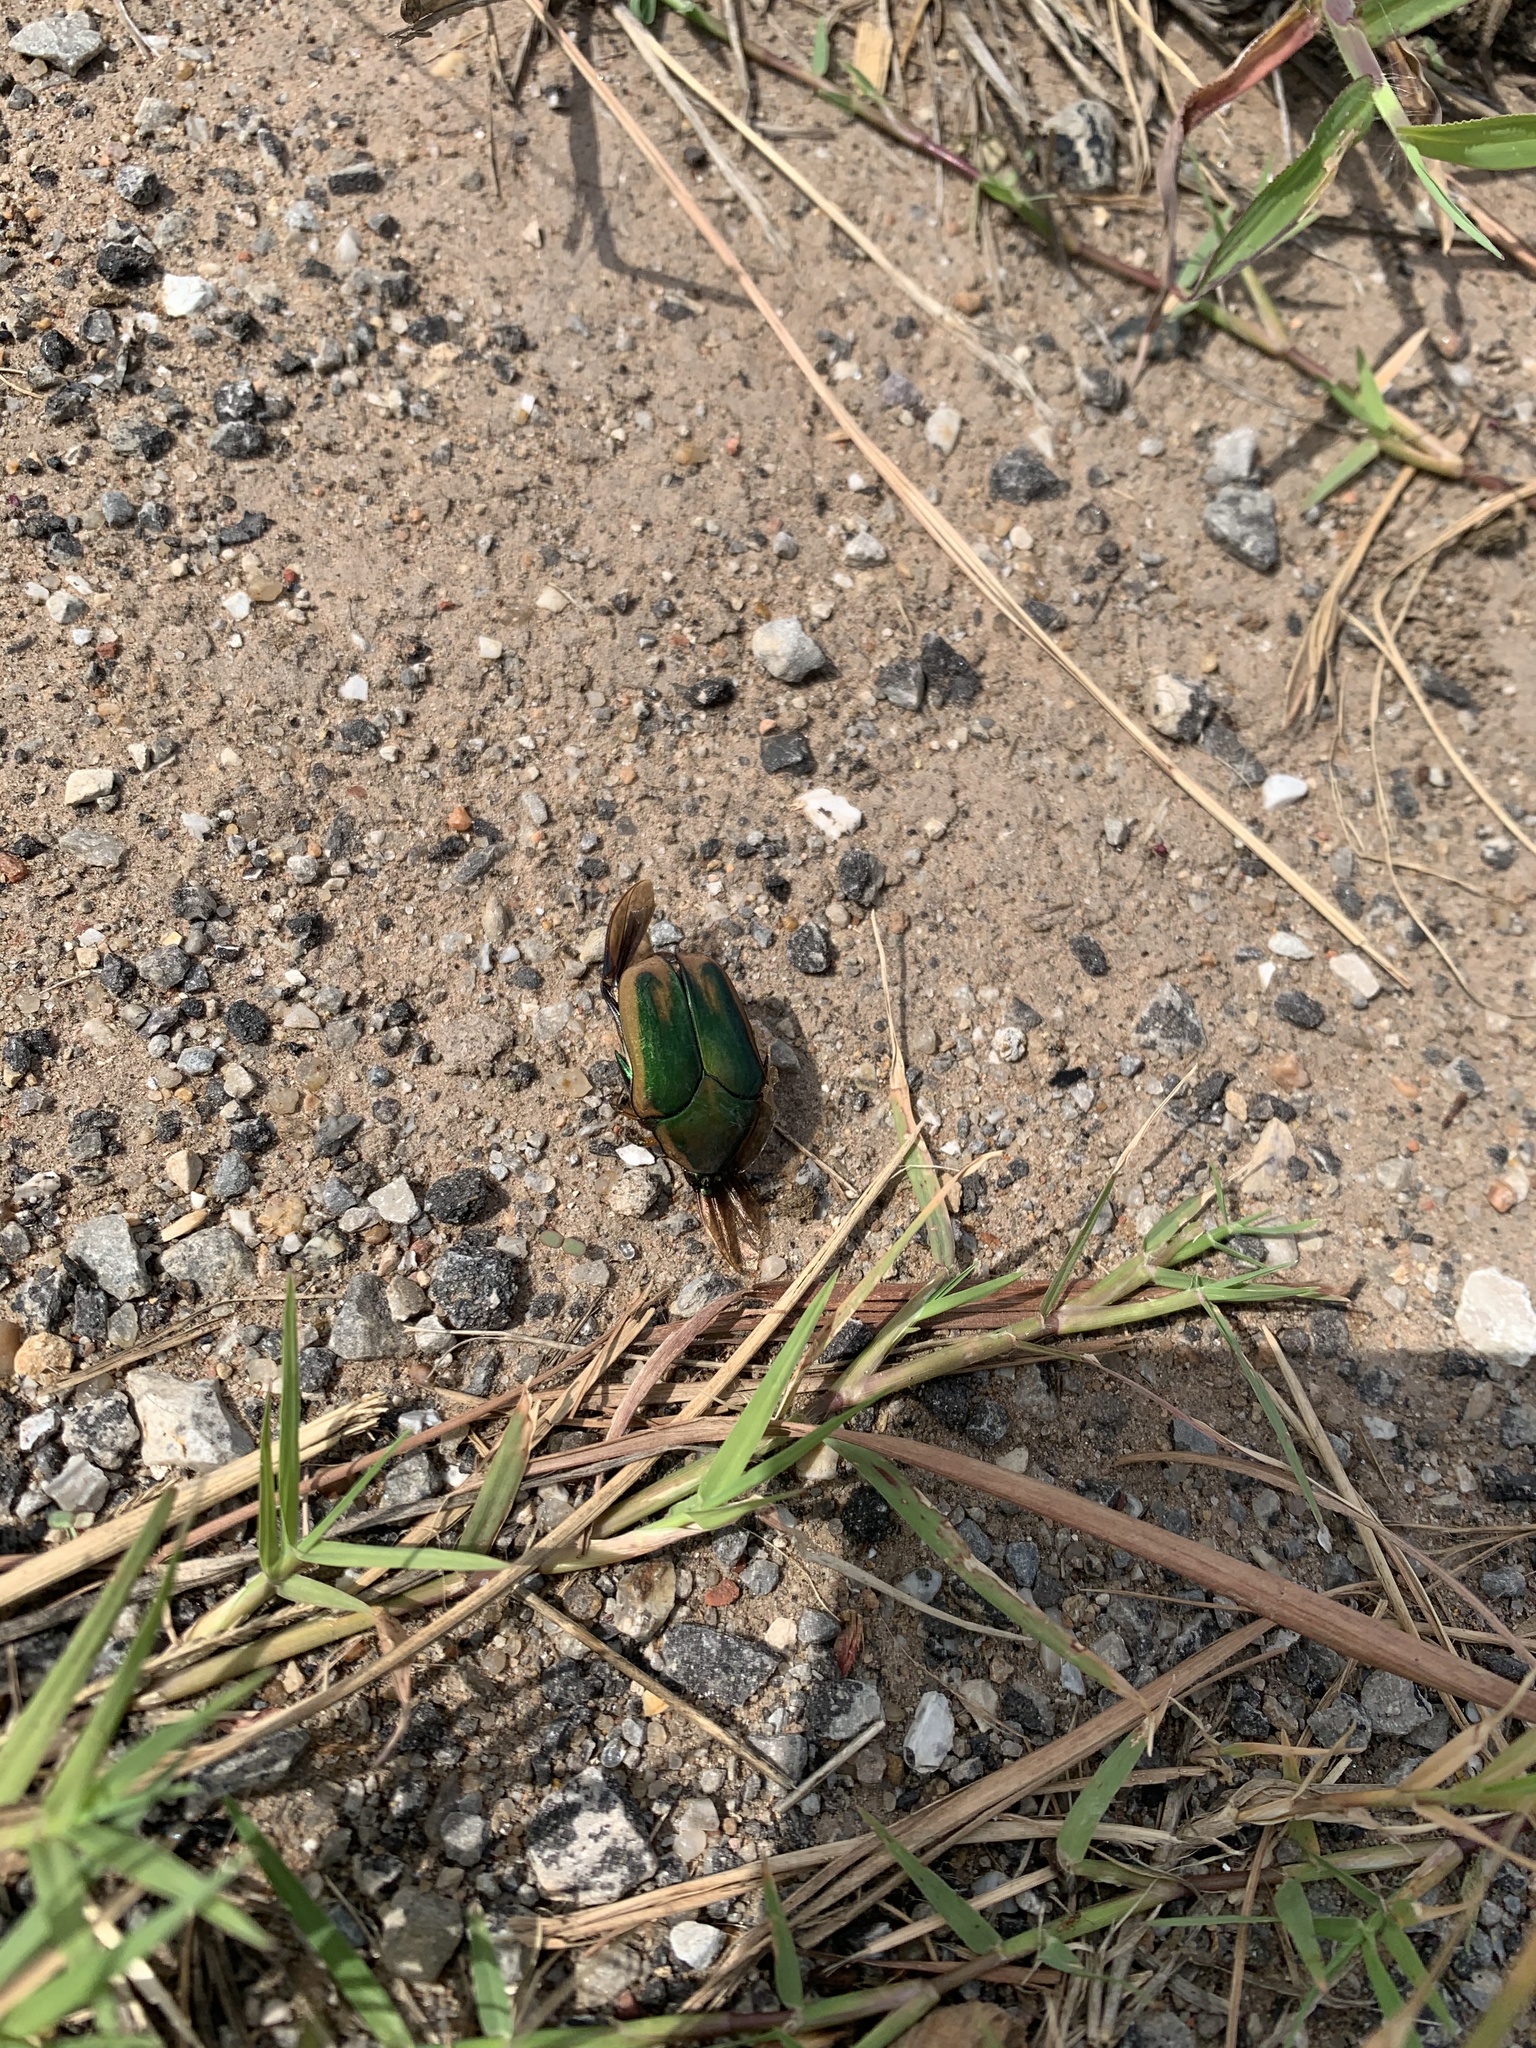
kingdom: Animalia
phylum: Arthropoda
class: Insecta
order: Coleoptera
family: Scarabaeidae
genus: Cotinis
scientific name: Cotinis nitida
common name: Common green june beetle
